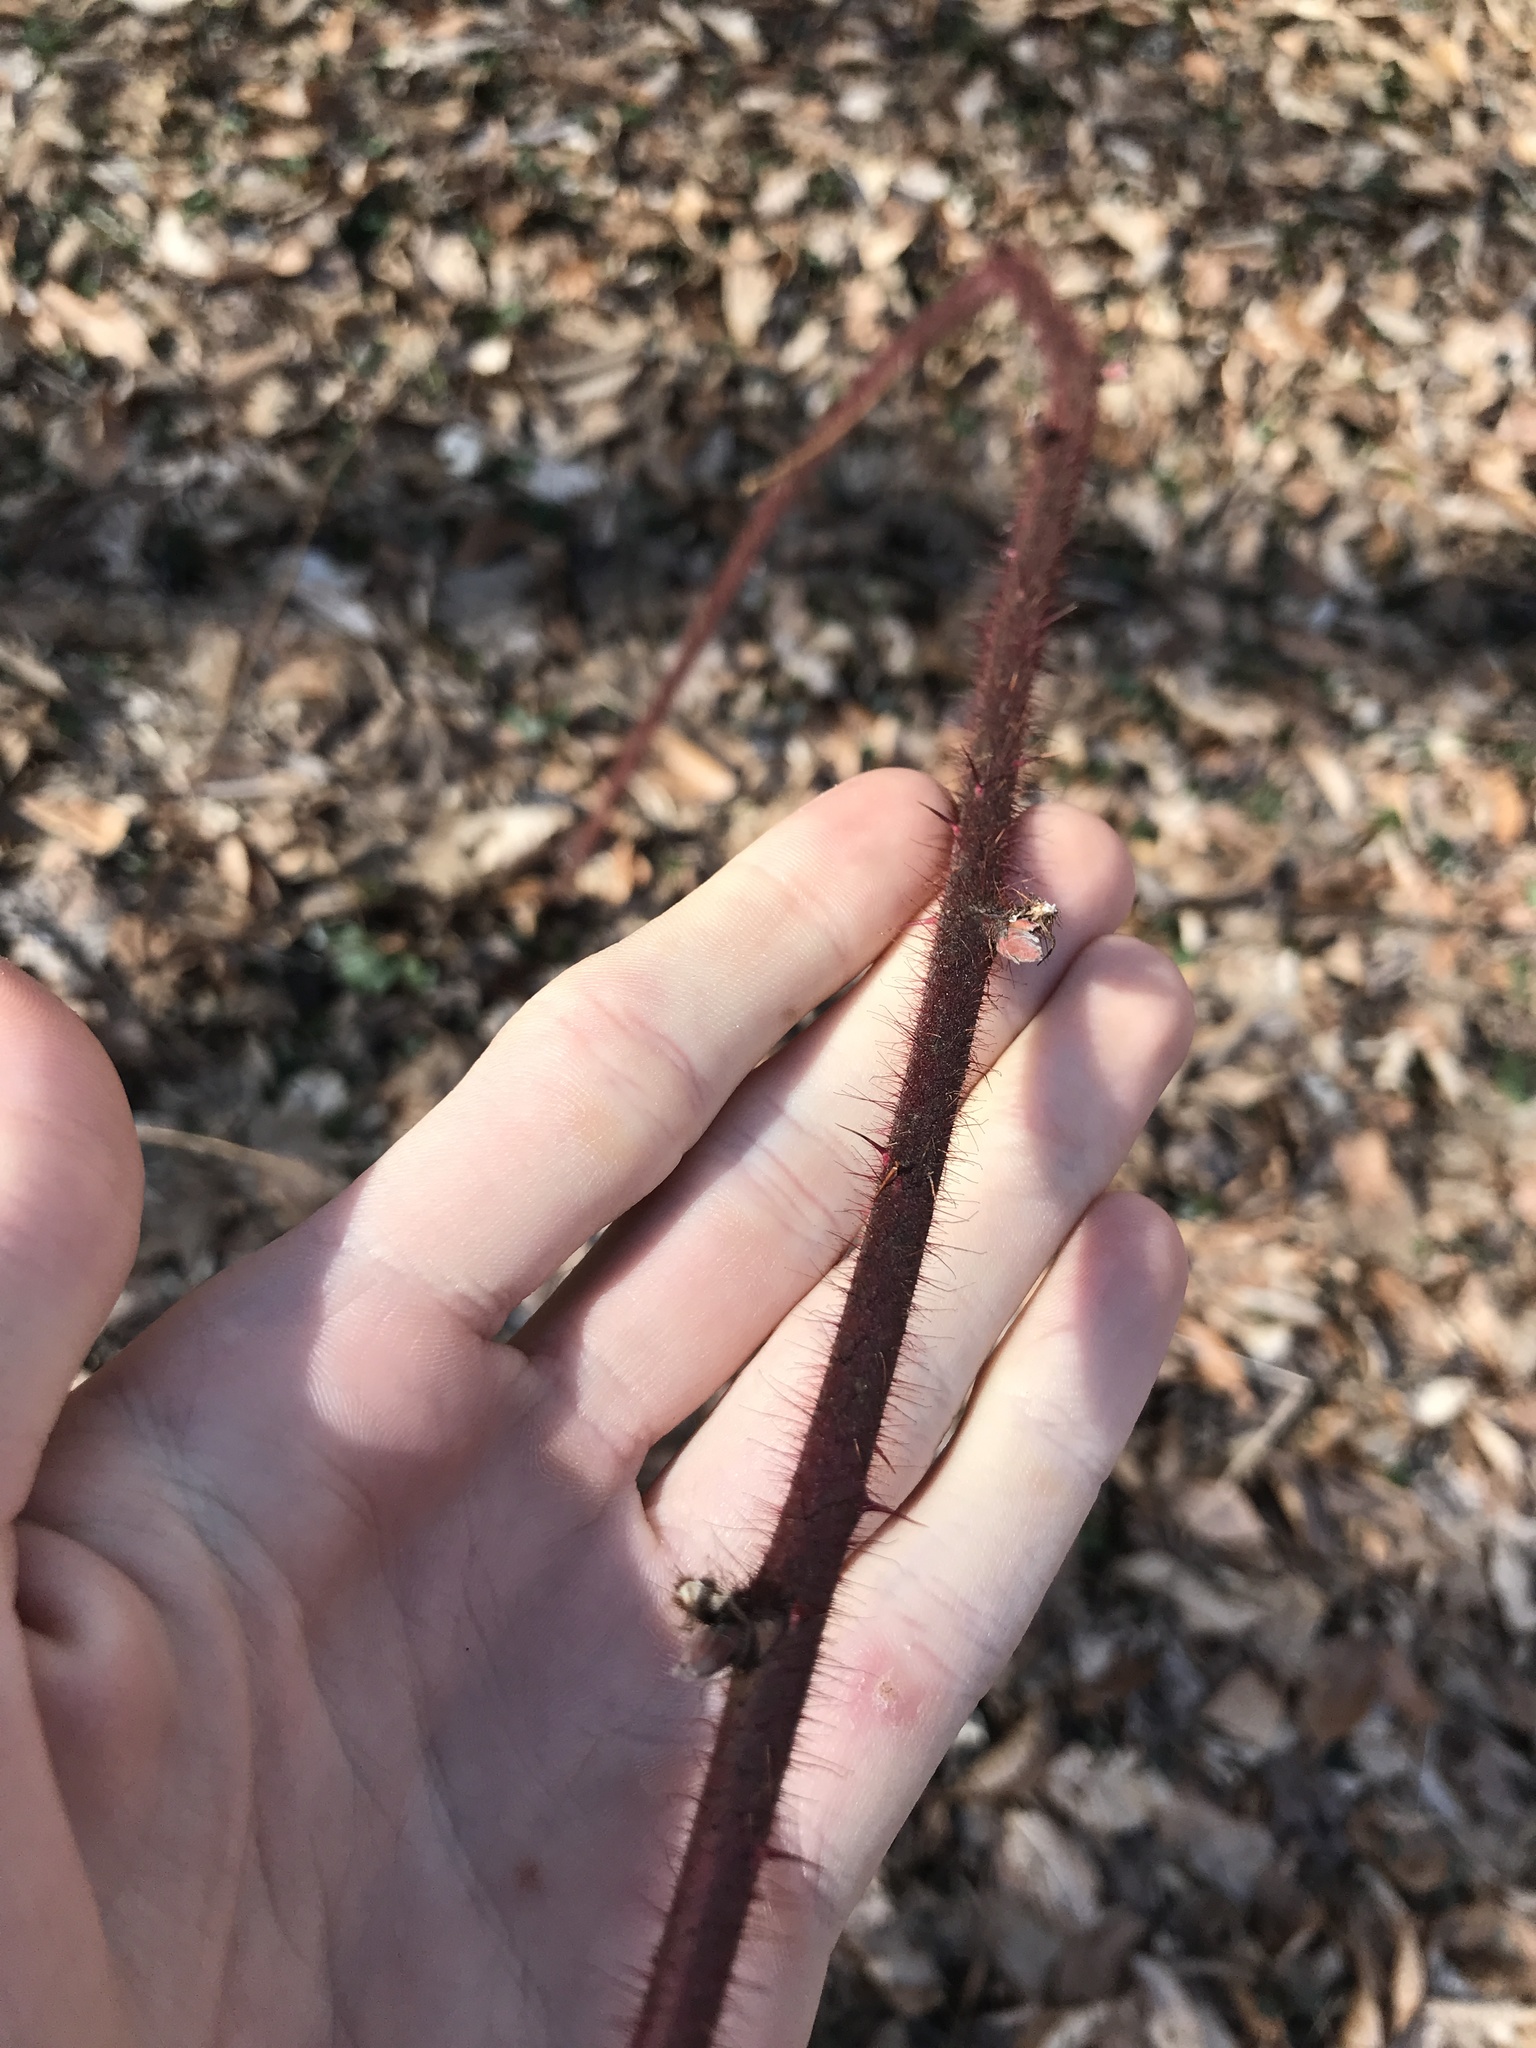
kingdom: Plantae
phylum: Tracheophyta
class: Magnoliopsida
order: Rosales
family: Rosaceae
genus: Rubus
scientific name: Rubus phoenicolasius
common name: Japanese wineberry
